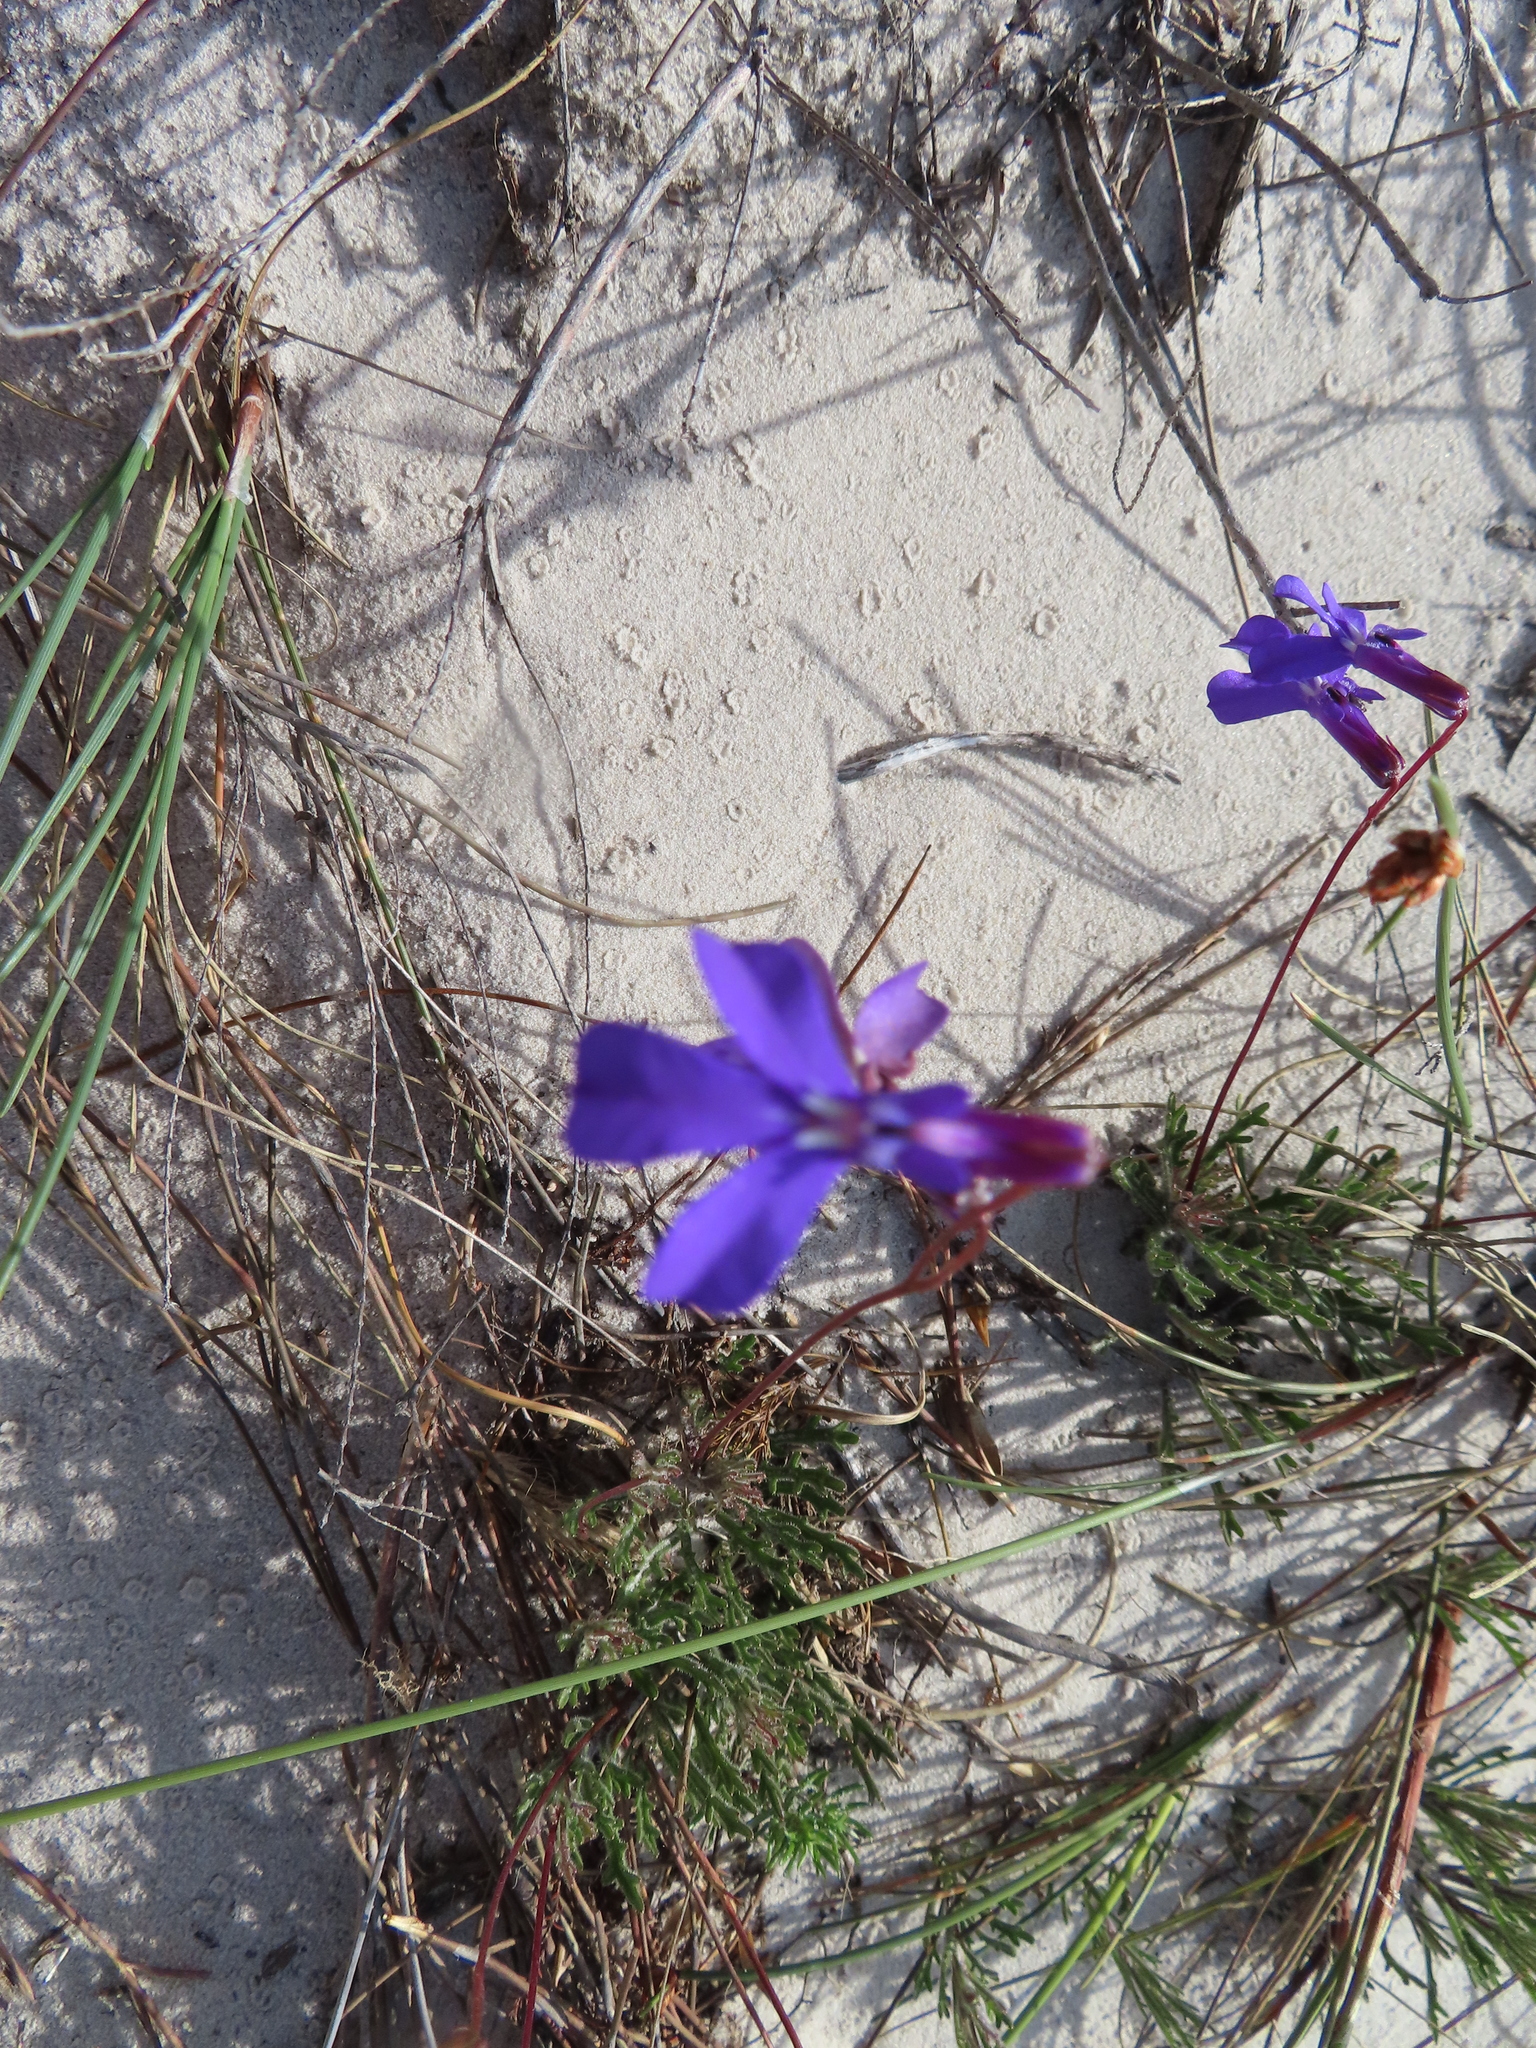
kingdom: Plantae
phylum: Tracheophyta
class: Magnoliopsida
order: Asterales
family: Campanulaceae
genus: Lobelia
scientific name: Lobelia chamaepitys
